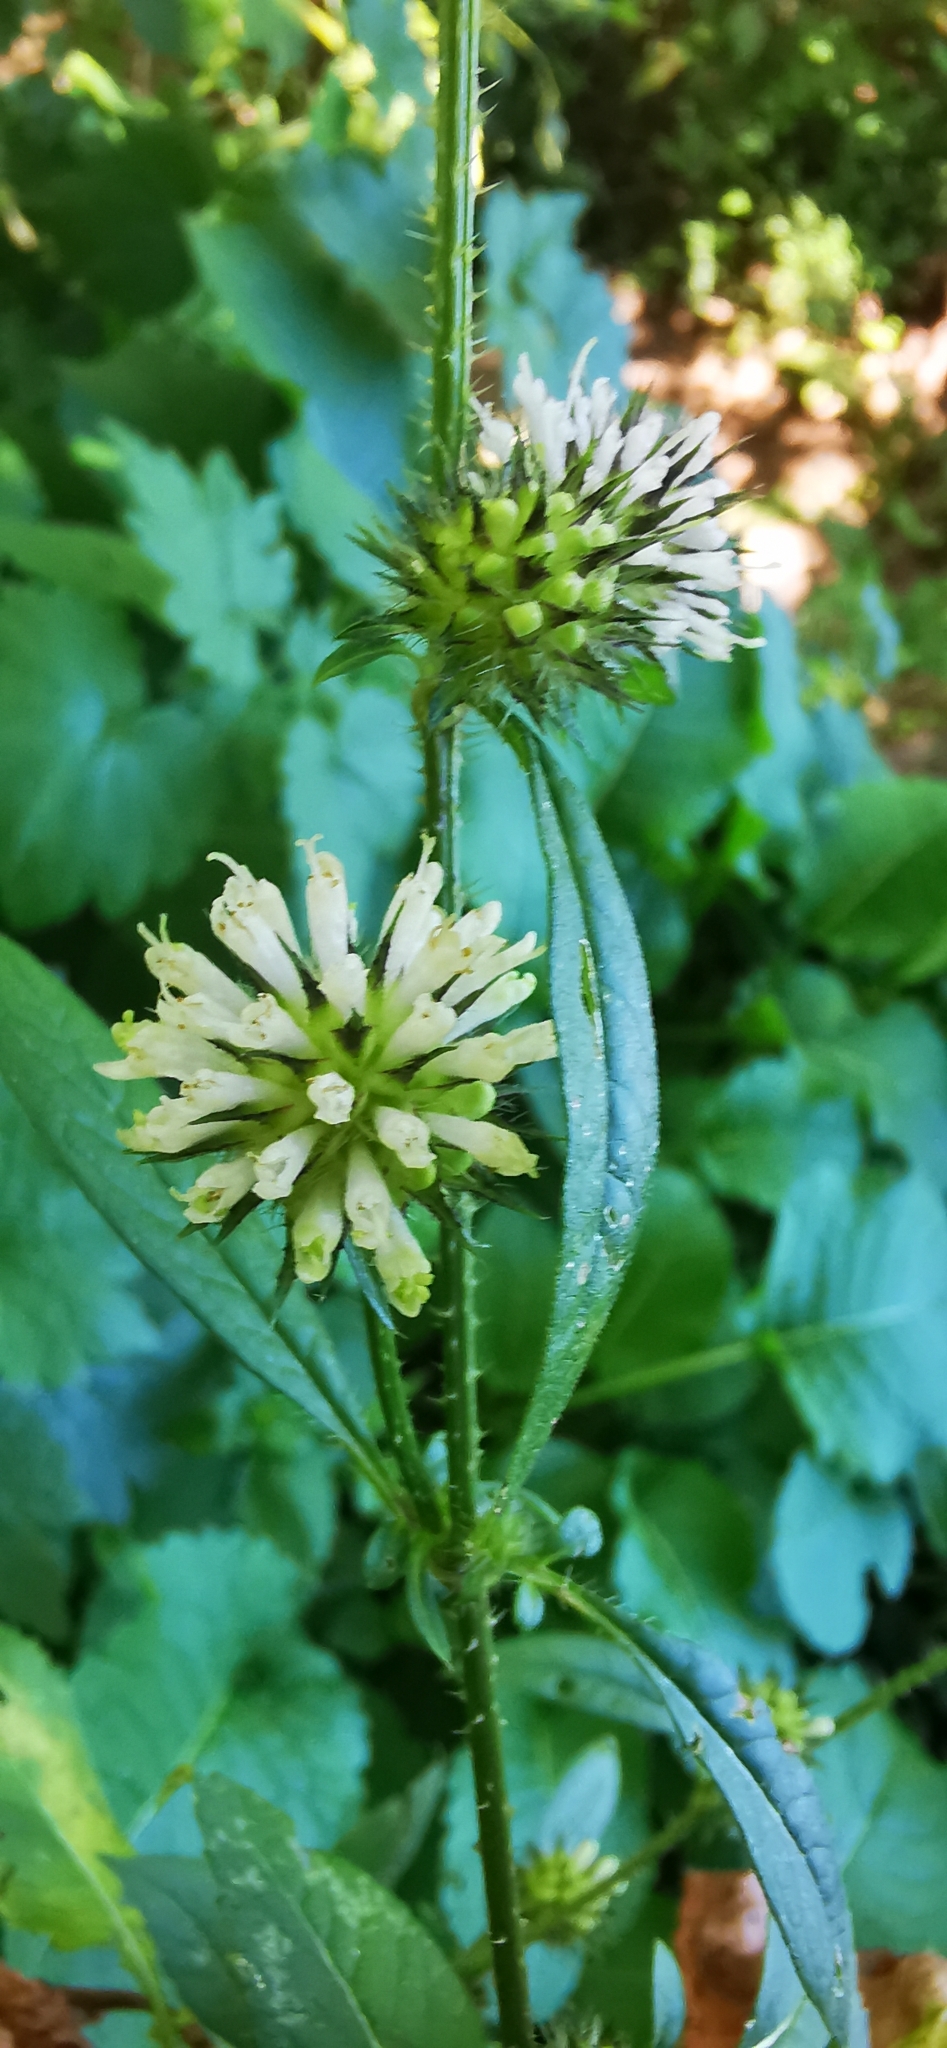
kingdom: Plantae
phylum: Tracheophyta
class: Magnoliopsida
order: Dipsacales
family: Caprifoliaceae
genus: Dipsacus
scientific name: Dipsacus strigosus
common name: Yellow-flowered teasel
